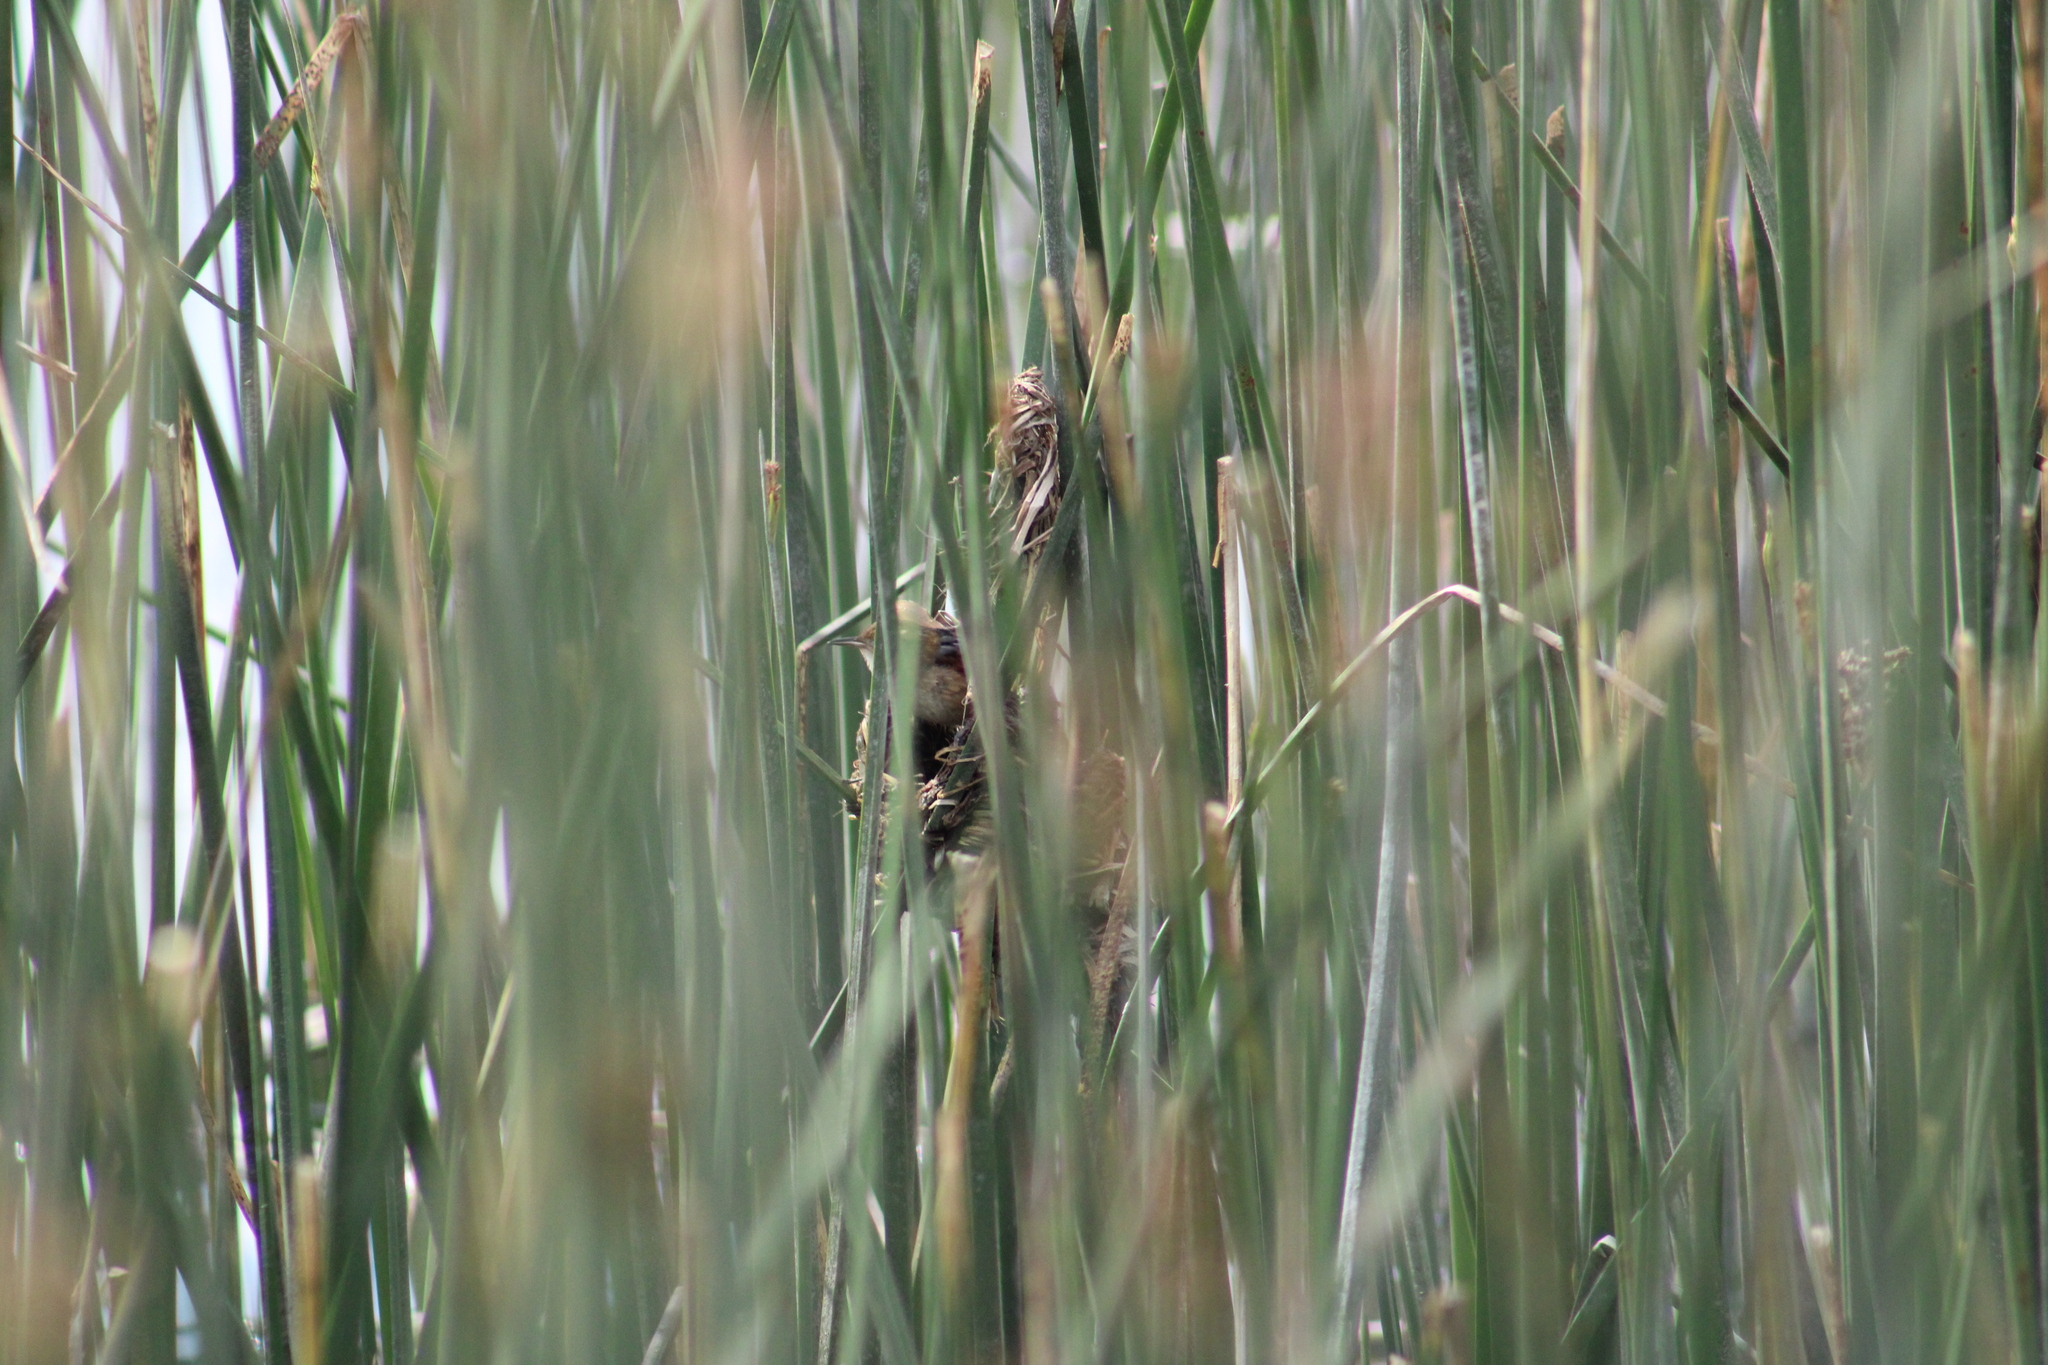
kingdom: Animalia
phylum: Chordata
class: Aves
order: Passeriformes
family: Furnariidae
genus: Phleocryptes
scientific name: Phleocryptes melanops
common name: Wren-like rushbird
